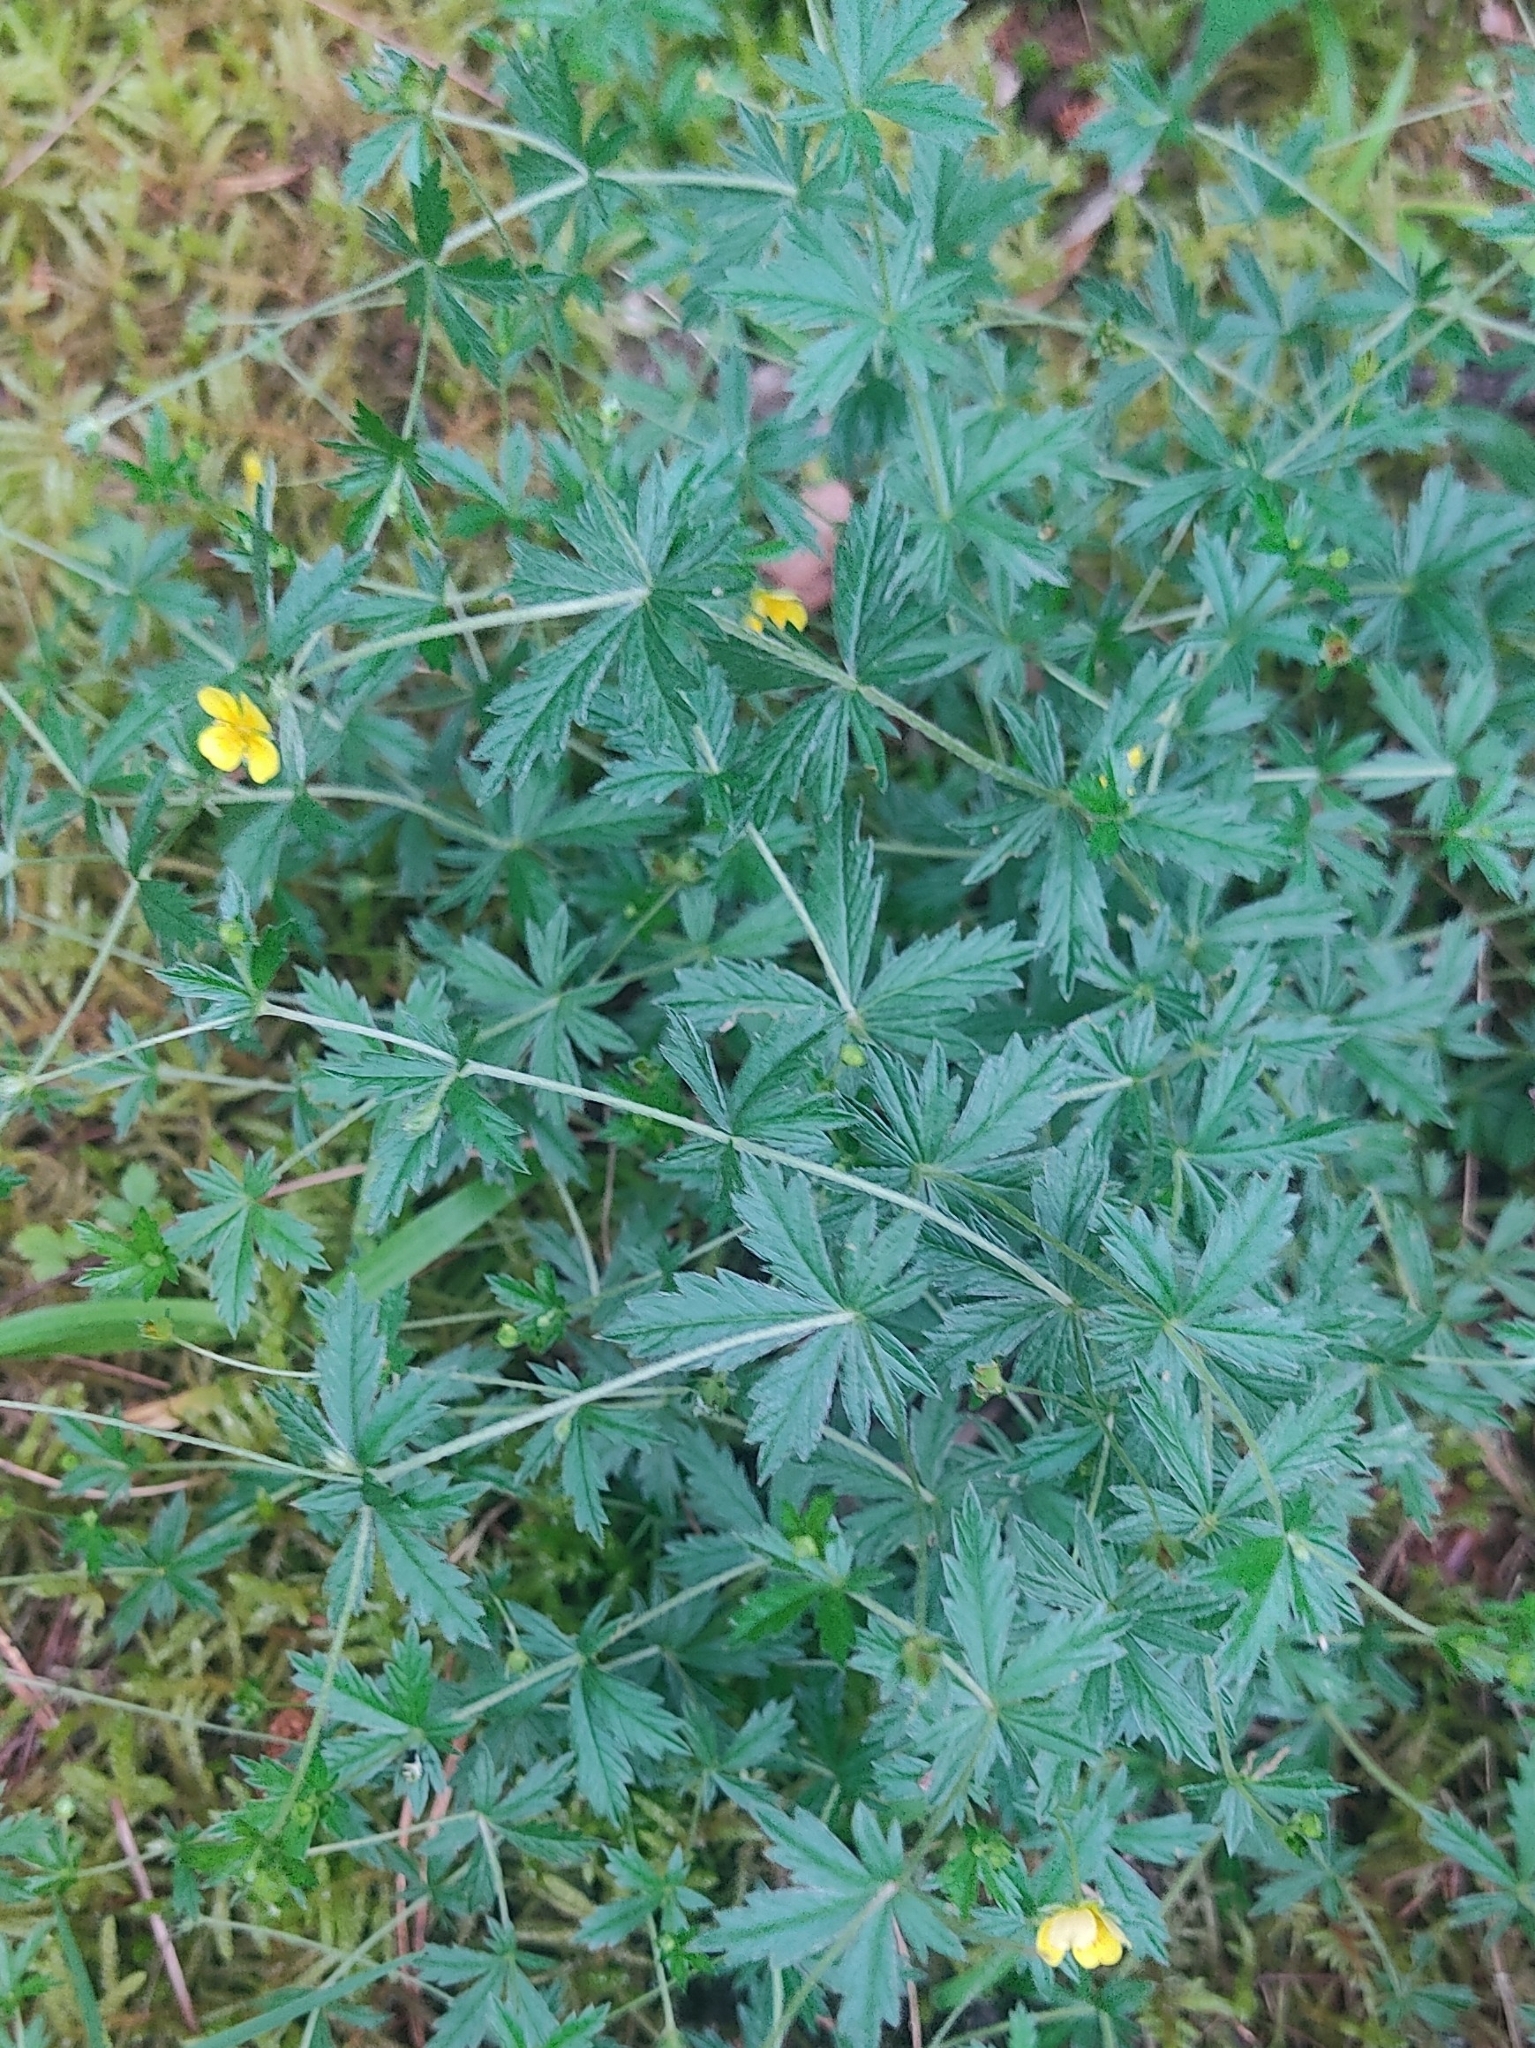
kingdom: Plantae
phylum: Tracheophyta
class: Magnoliopsida
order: Rosales
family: Rosaceae
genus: Potentilla
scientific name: Potentilla erecta
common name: Tormentil
